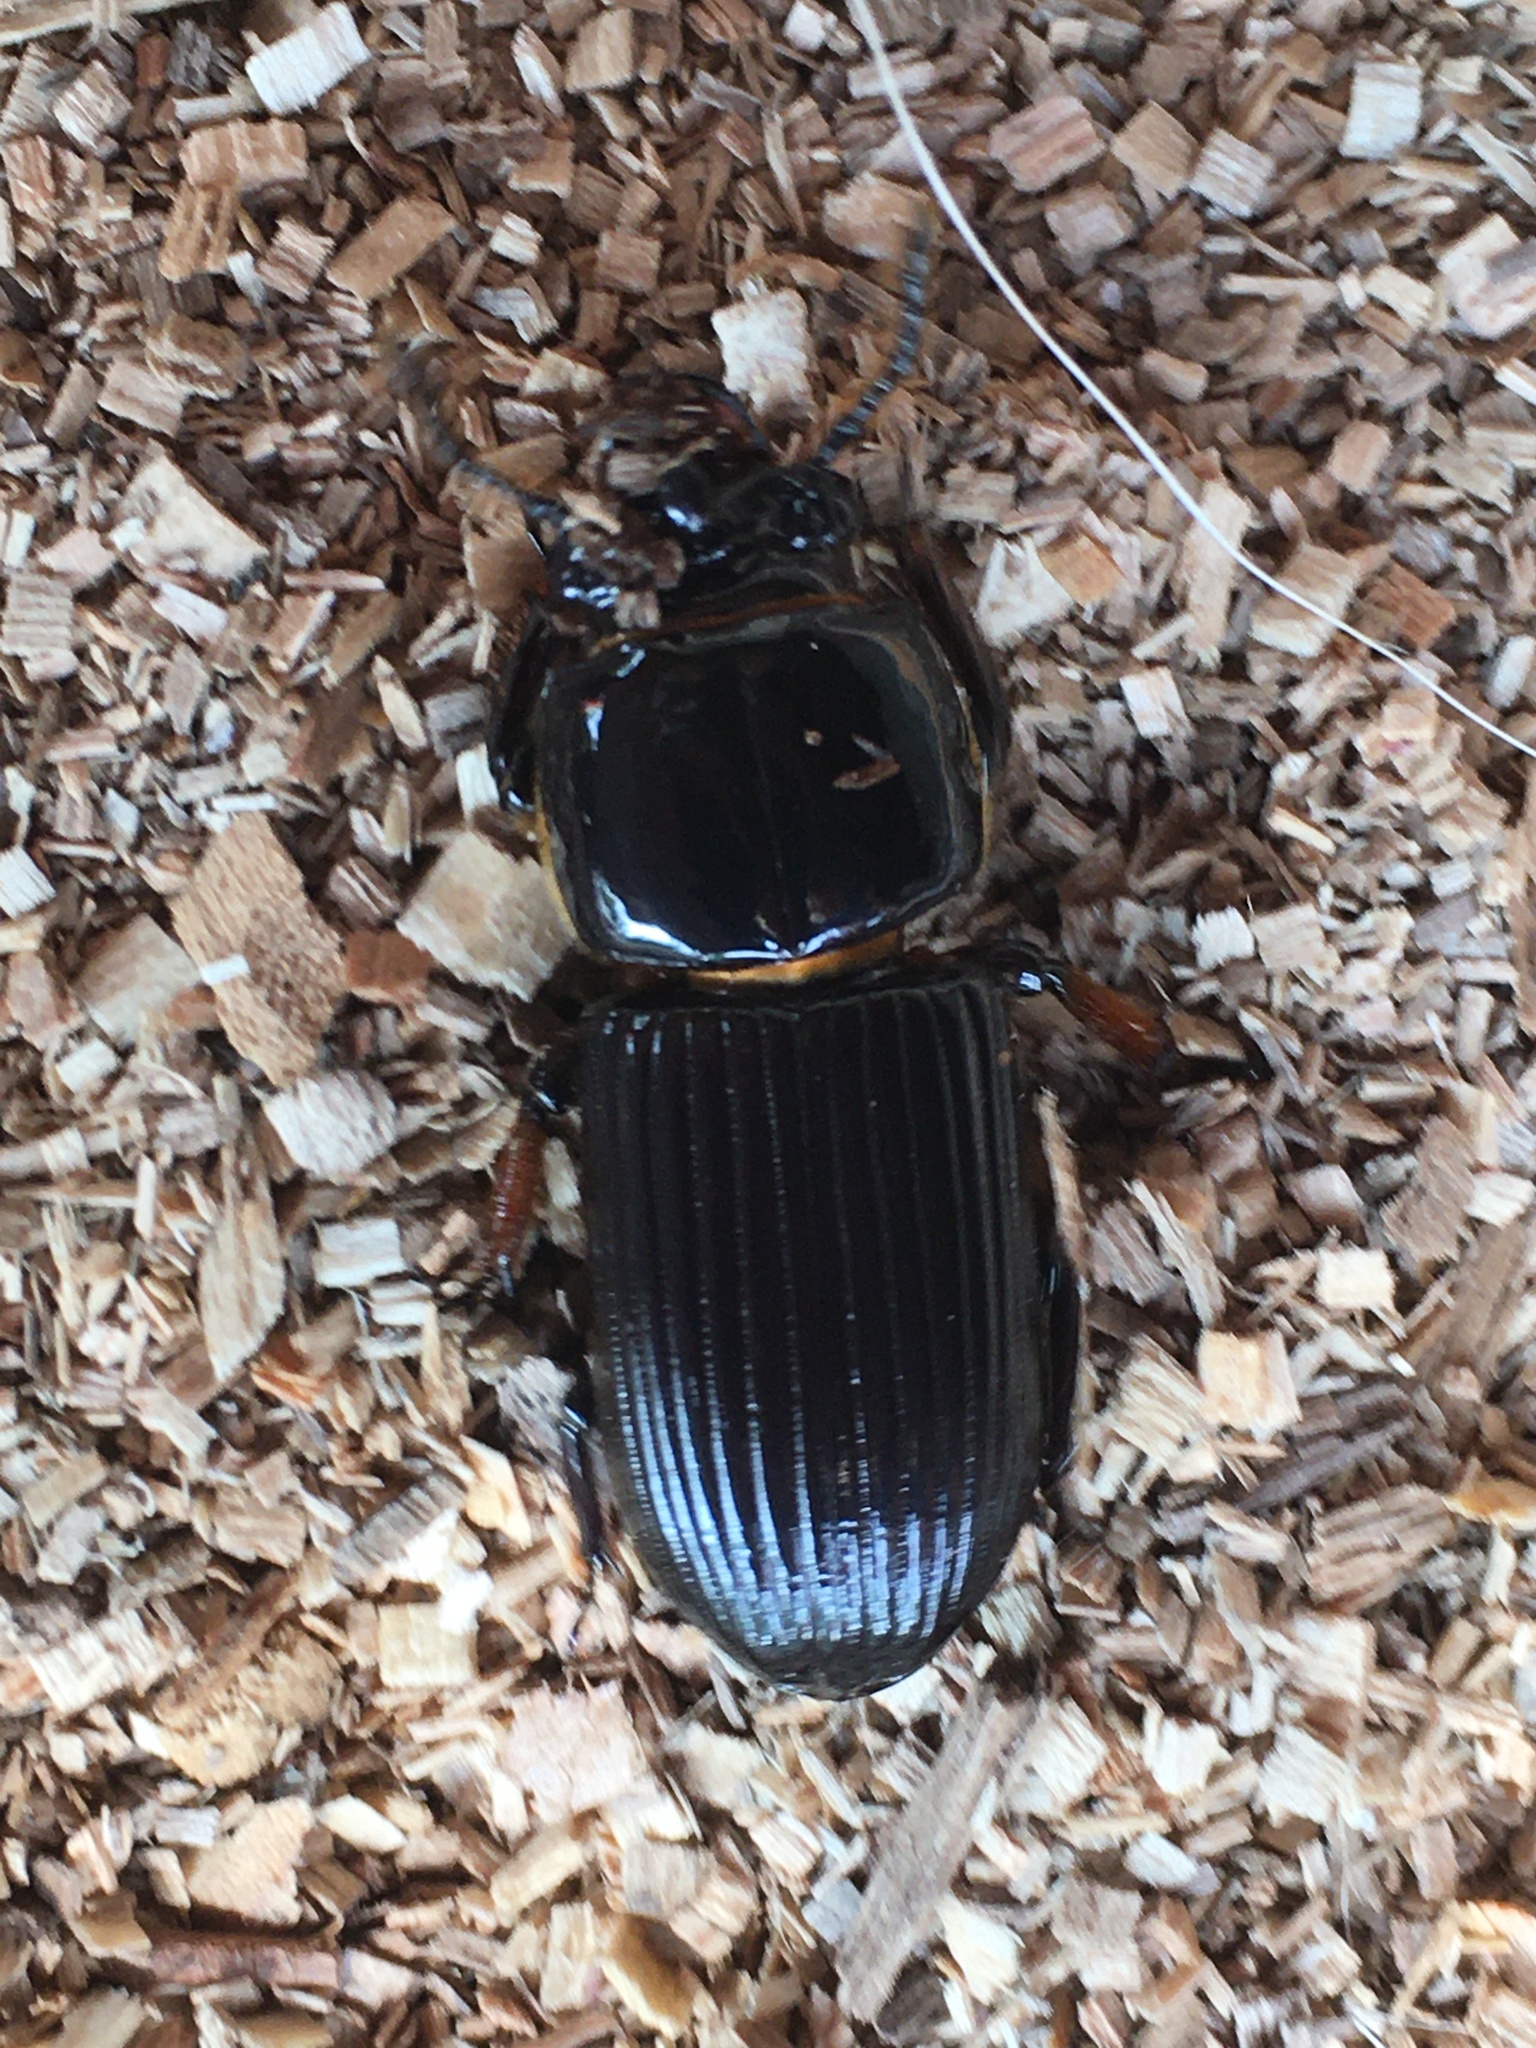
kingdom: Animalia
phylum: Arthropoda
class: Insecta
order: Coleoptera
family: Passalidae
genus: Odontotaenius
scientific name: Odontotaenius disjunctus
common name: Patent leather beetle
